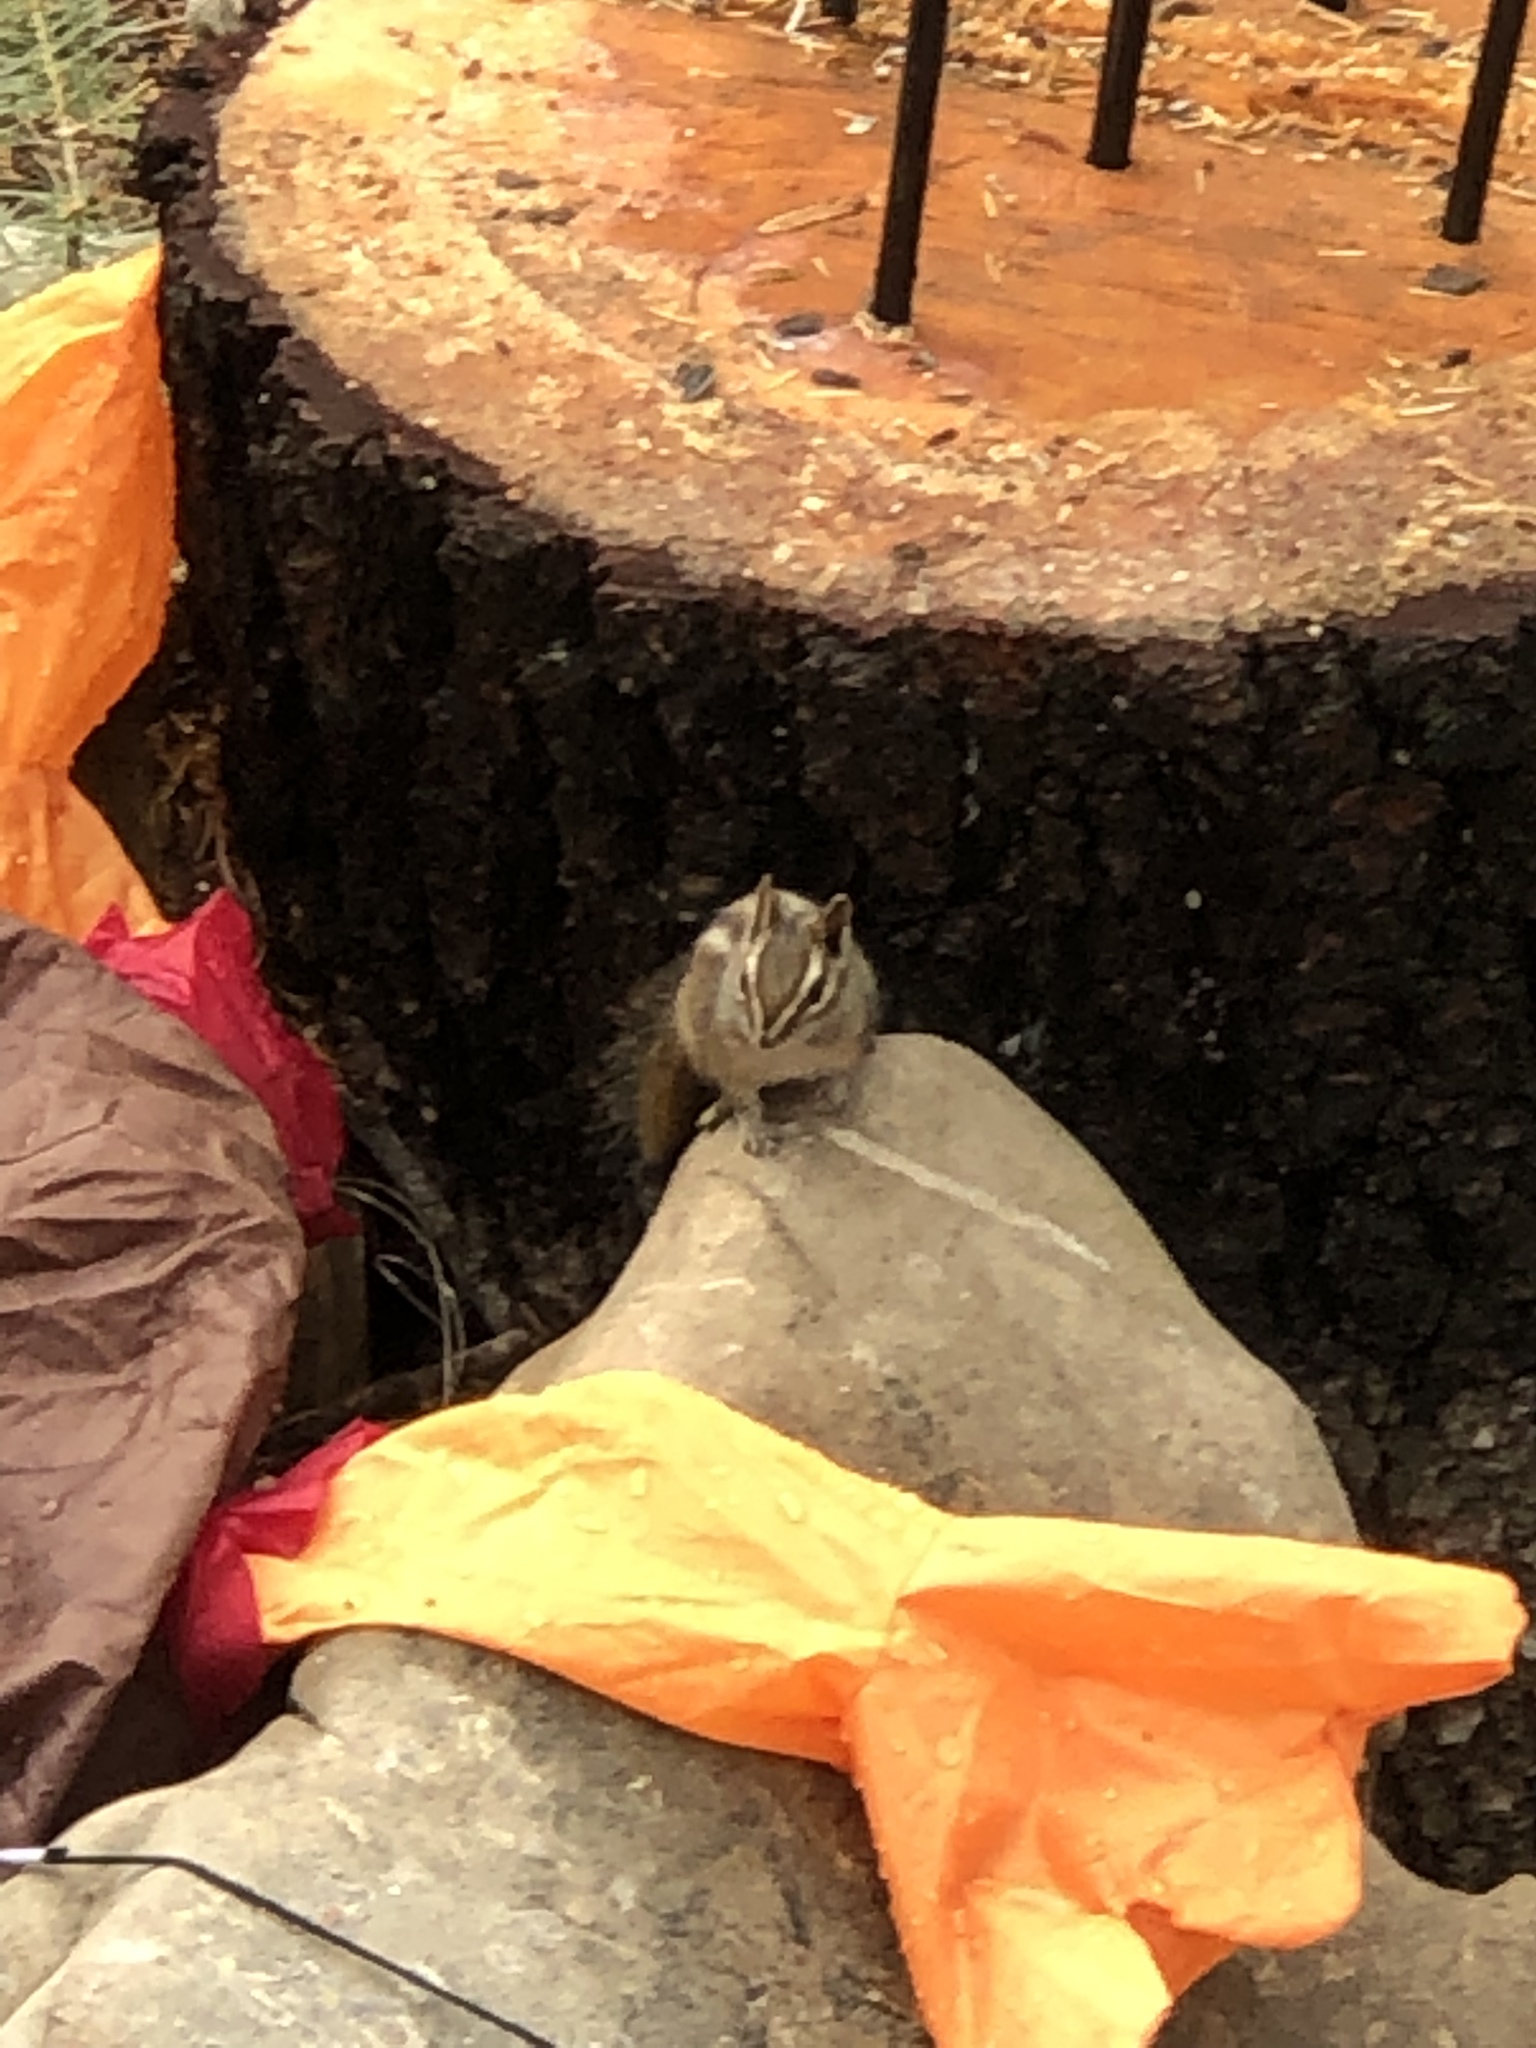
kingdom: Animalia
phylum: Chordata
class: Mammalia
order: Rodentia
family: Sciuridae
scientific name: Sciuridae
